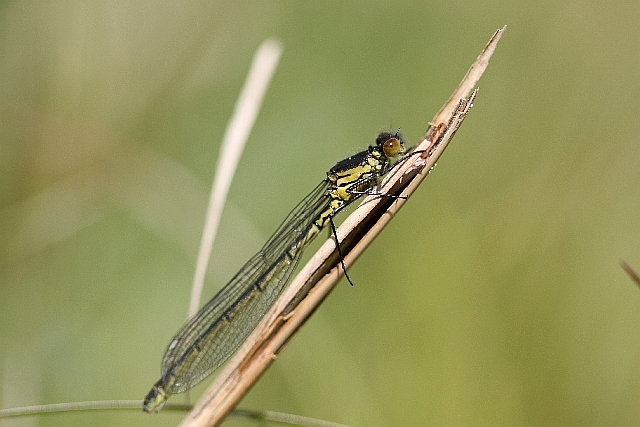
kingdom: Animalia
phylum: Arthropoda
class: Insecta
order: Odonata
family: Coenagrionidae
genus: Erythromma
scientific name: Erythromma najas
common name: Red-eyed damselfly
